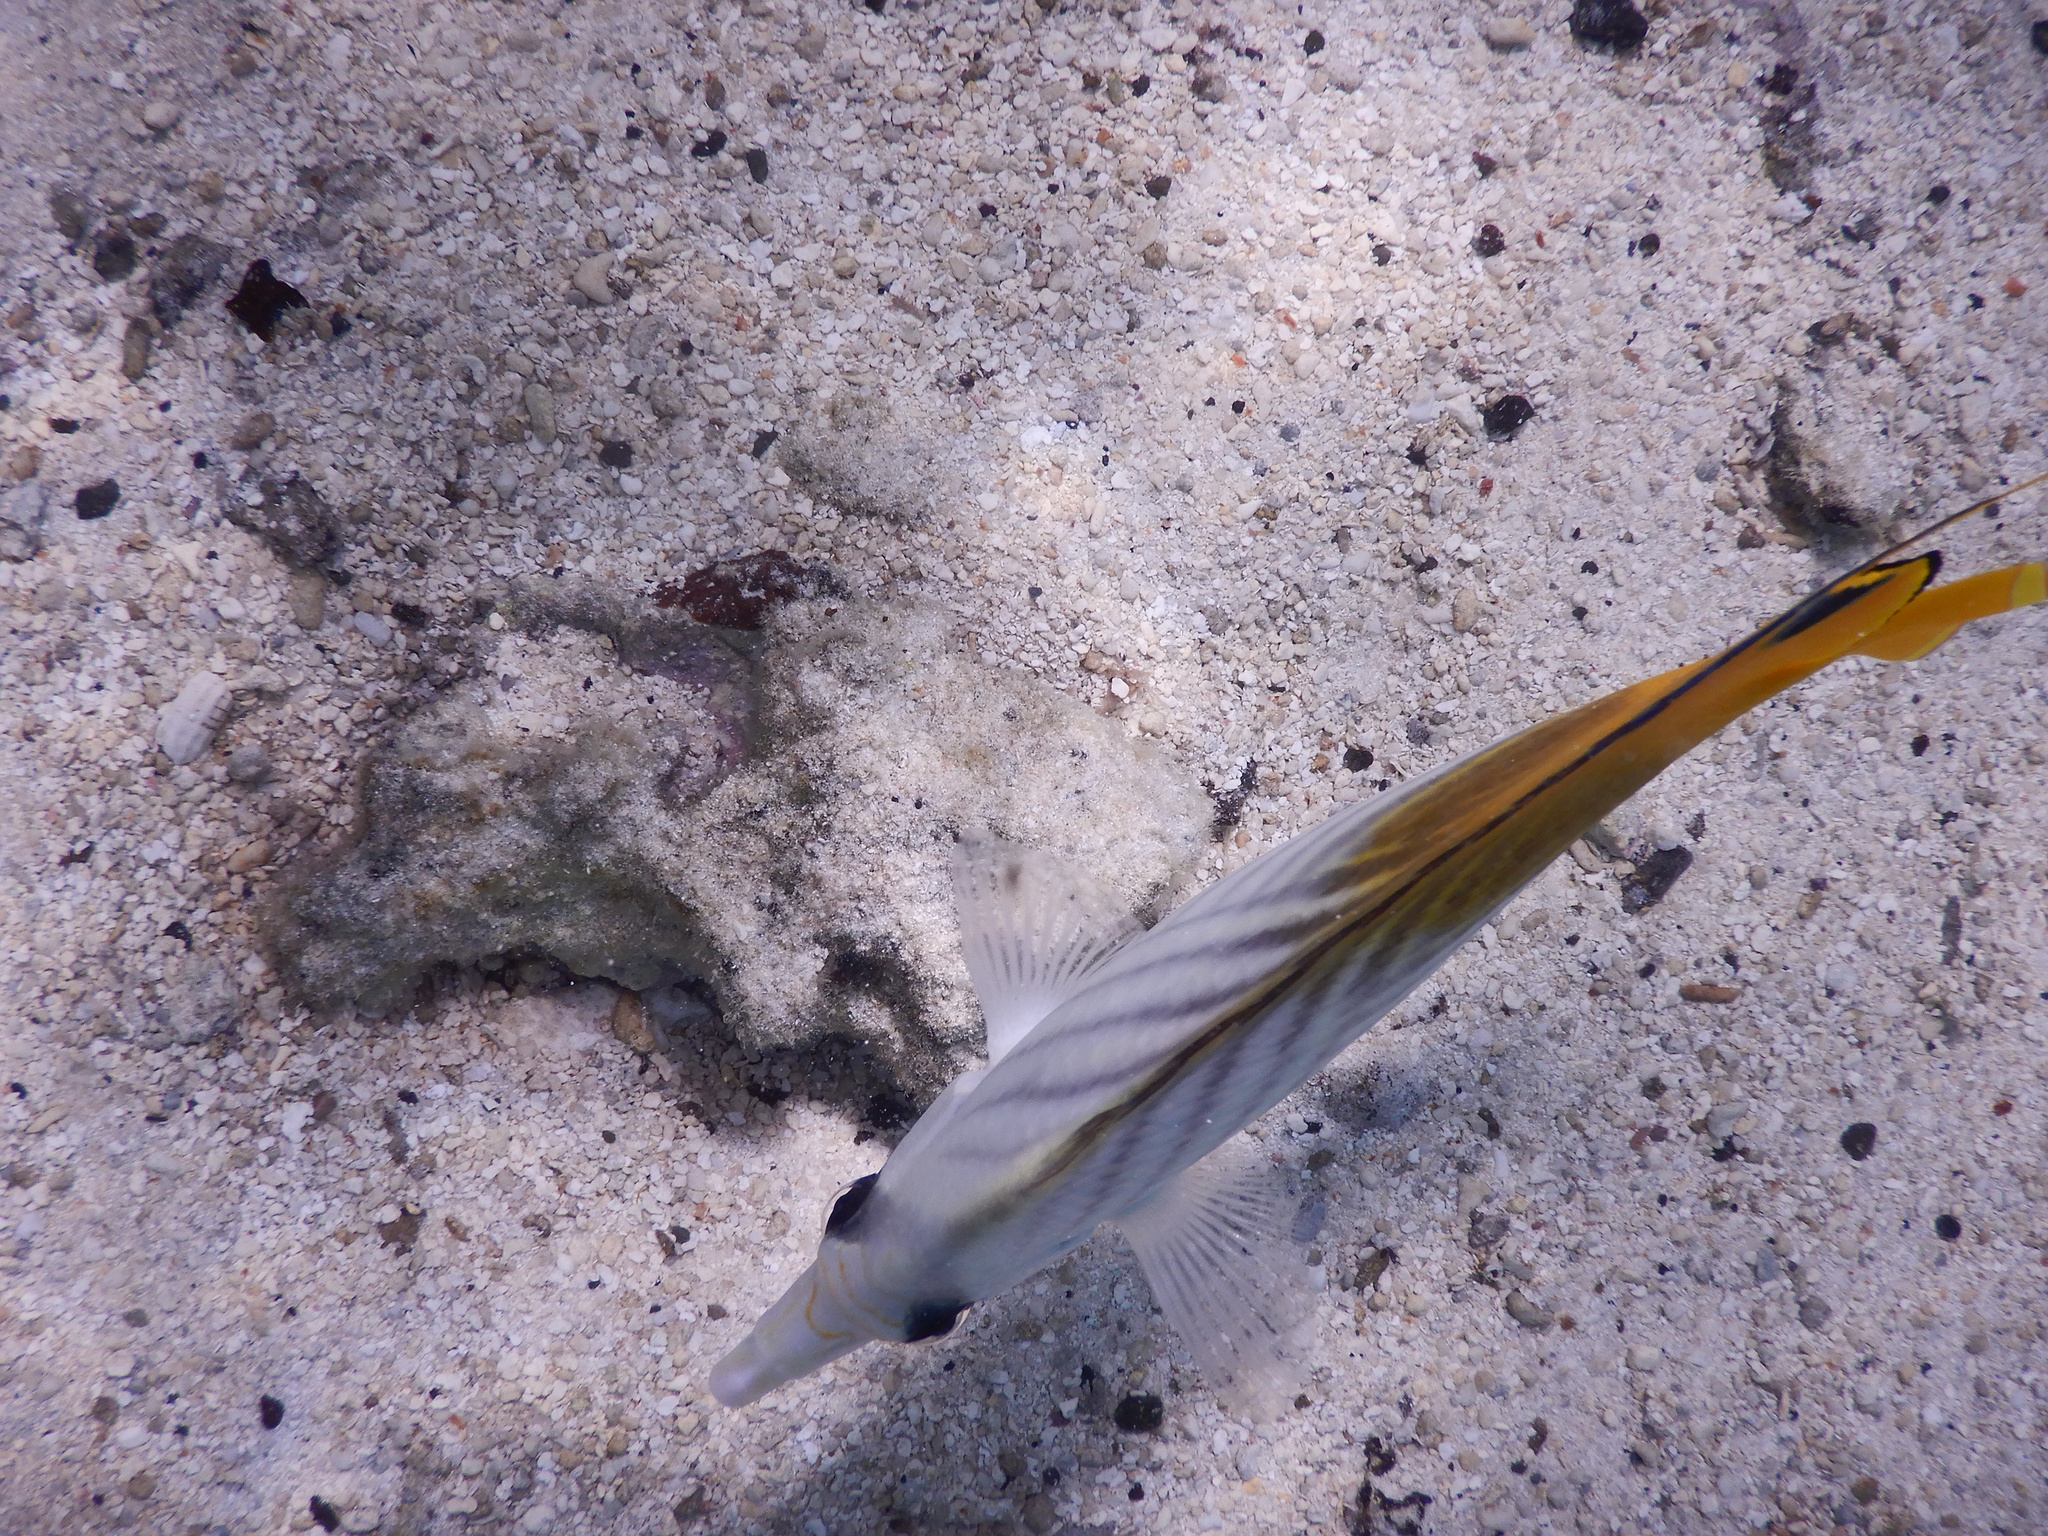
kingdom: Animalia
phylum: Chordata
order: Perciformes
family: Chaetodontidae
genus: Chaetodon
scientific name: Chaetodon auriga
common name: Threadfin butterflyfish
